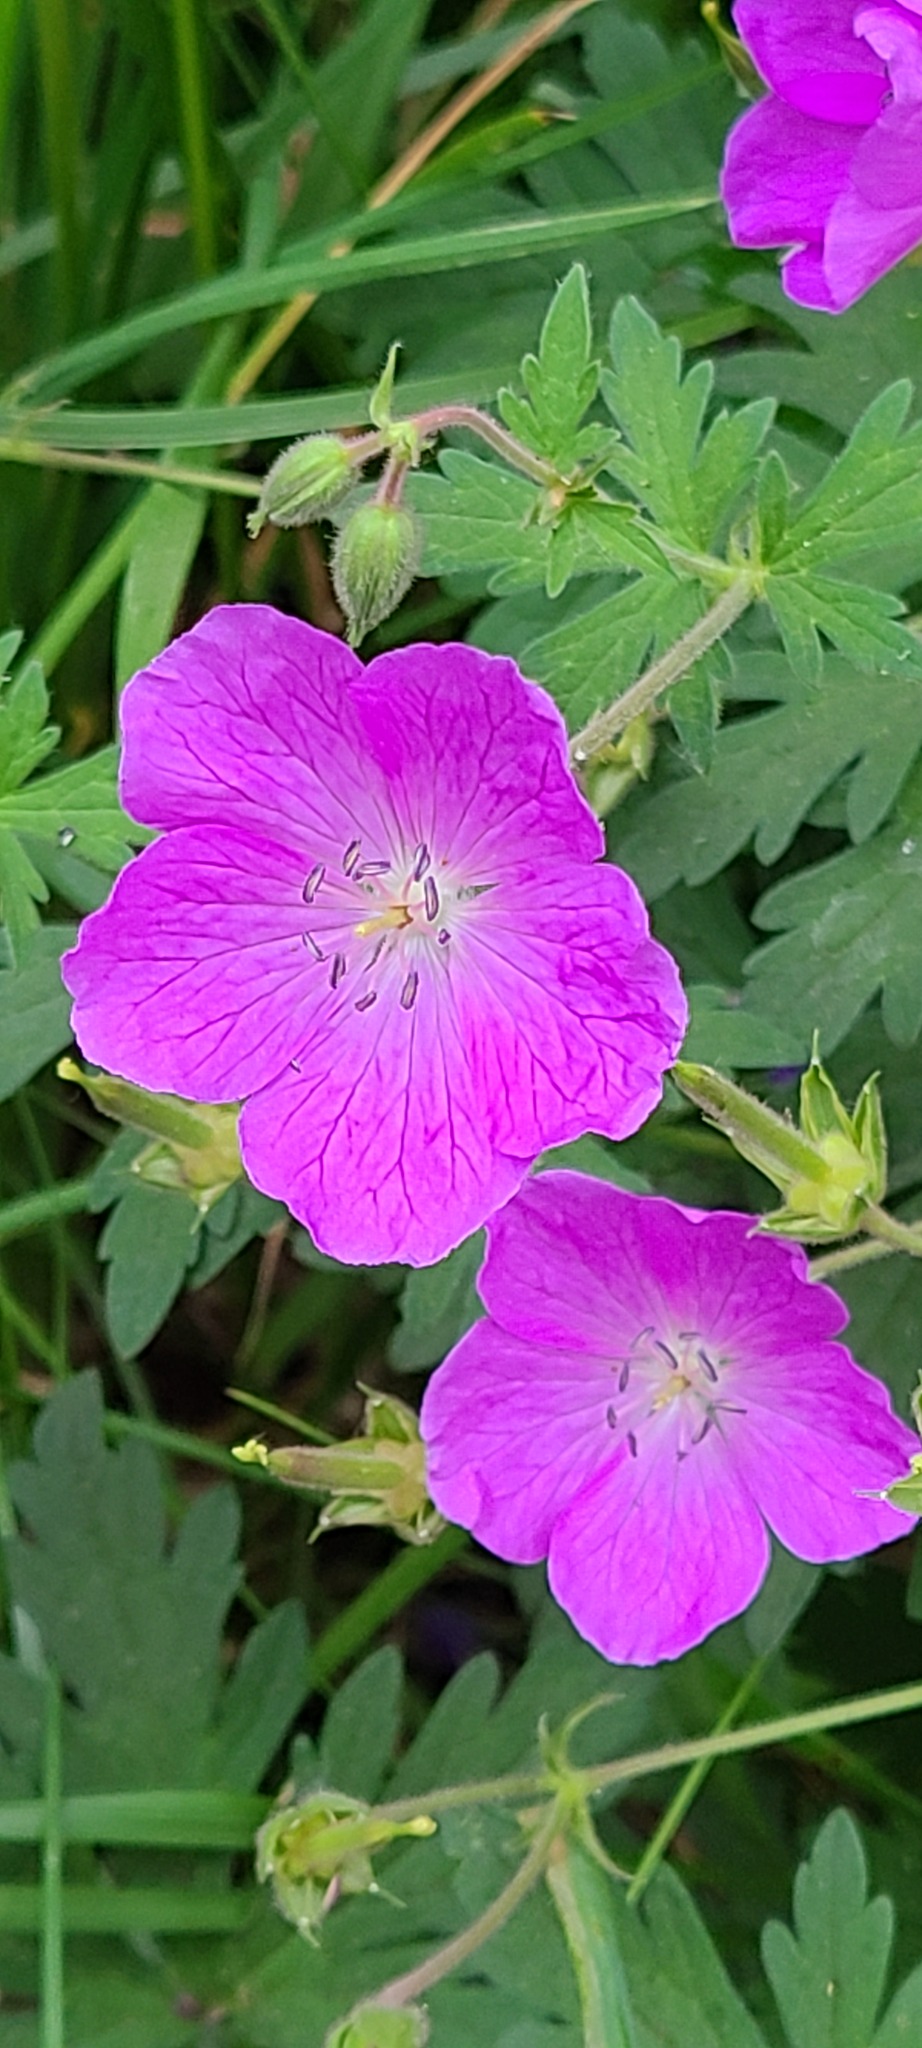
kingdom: Plantae
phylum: Tracheophyta
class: Magnoliopsida
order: Geraniales
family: Geraniaceae
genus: Geranium
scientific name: Geranium oreganum
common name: Oregon crane's-bill
